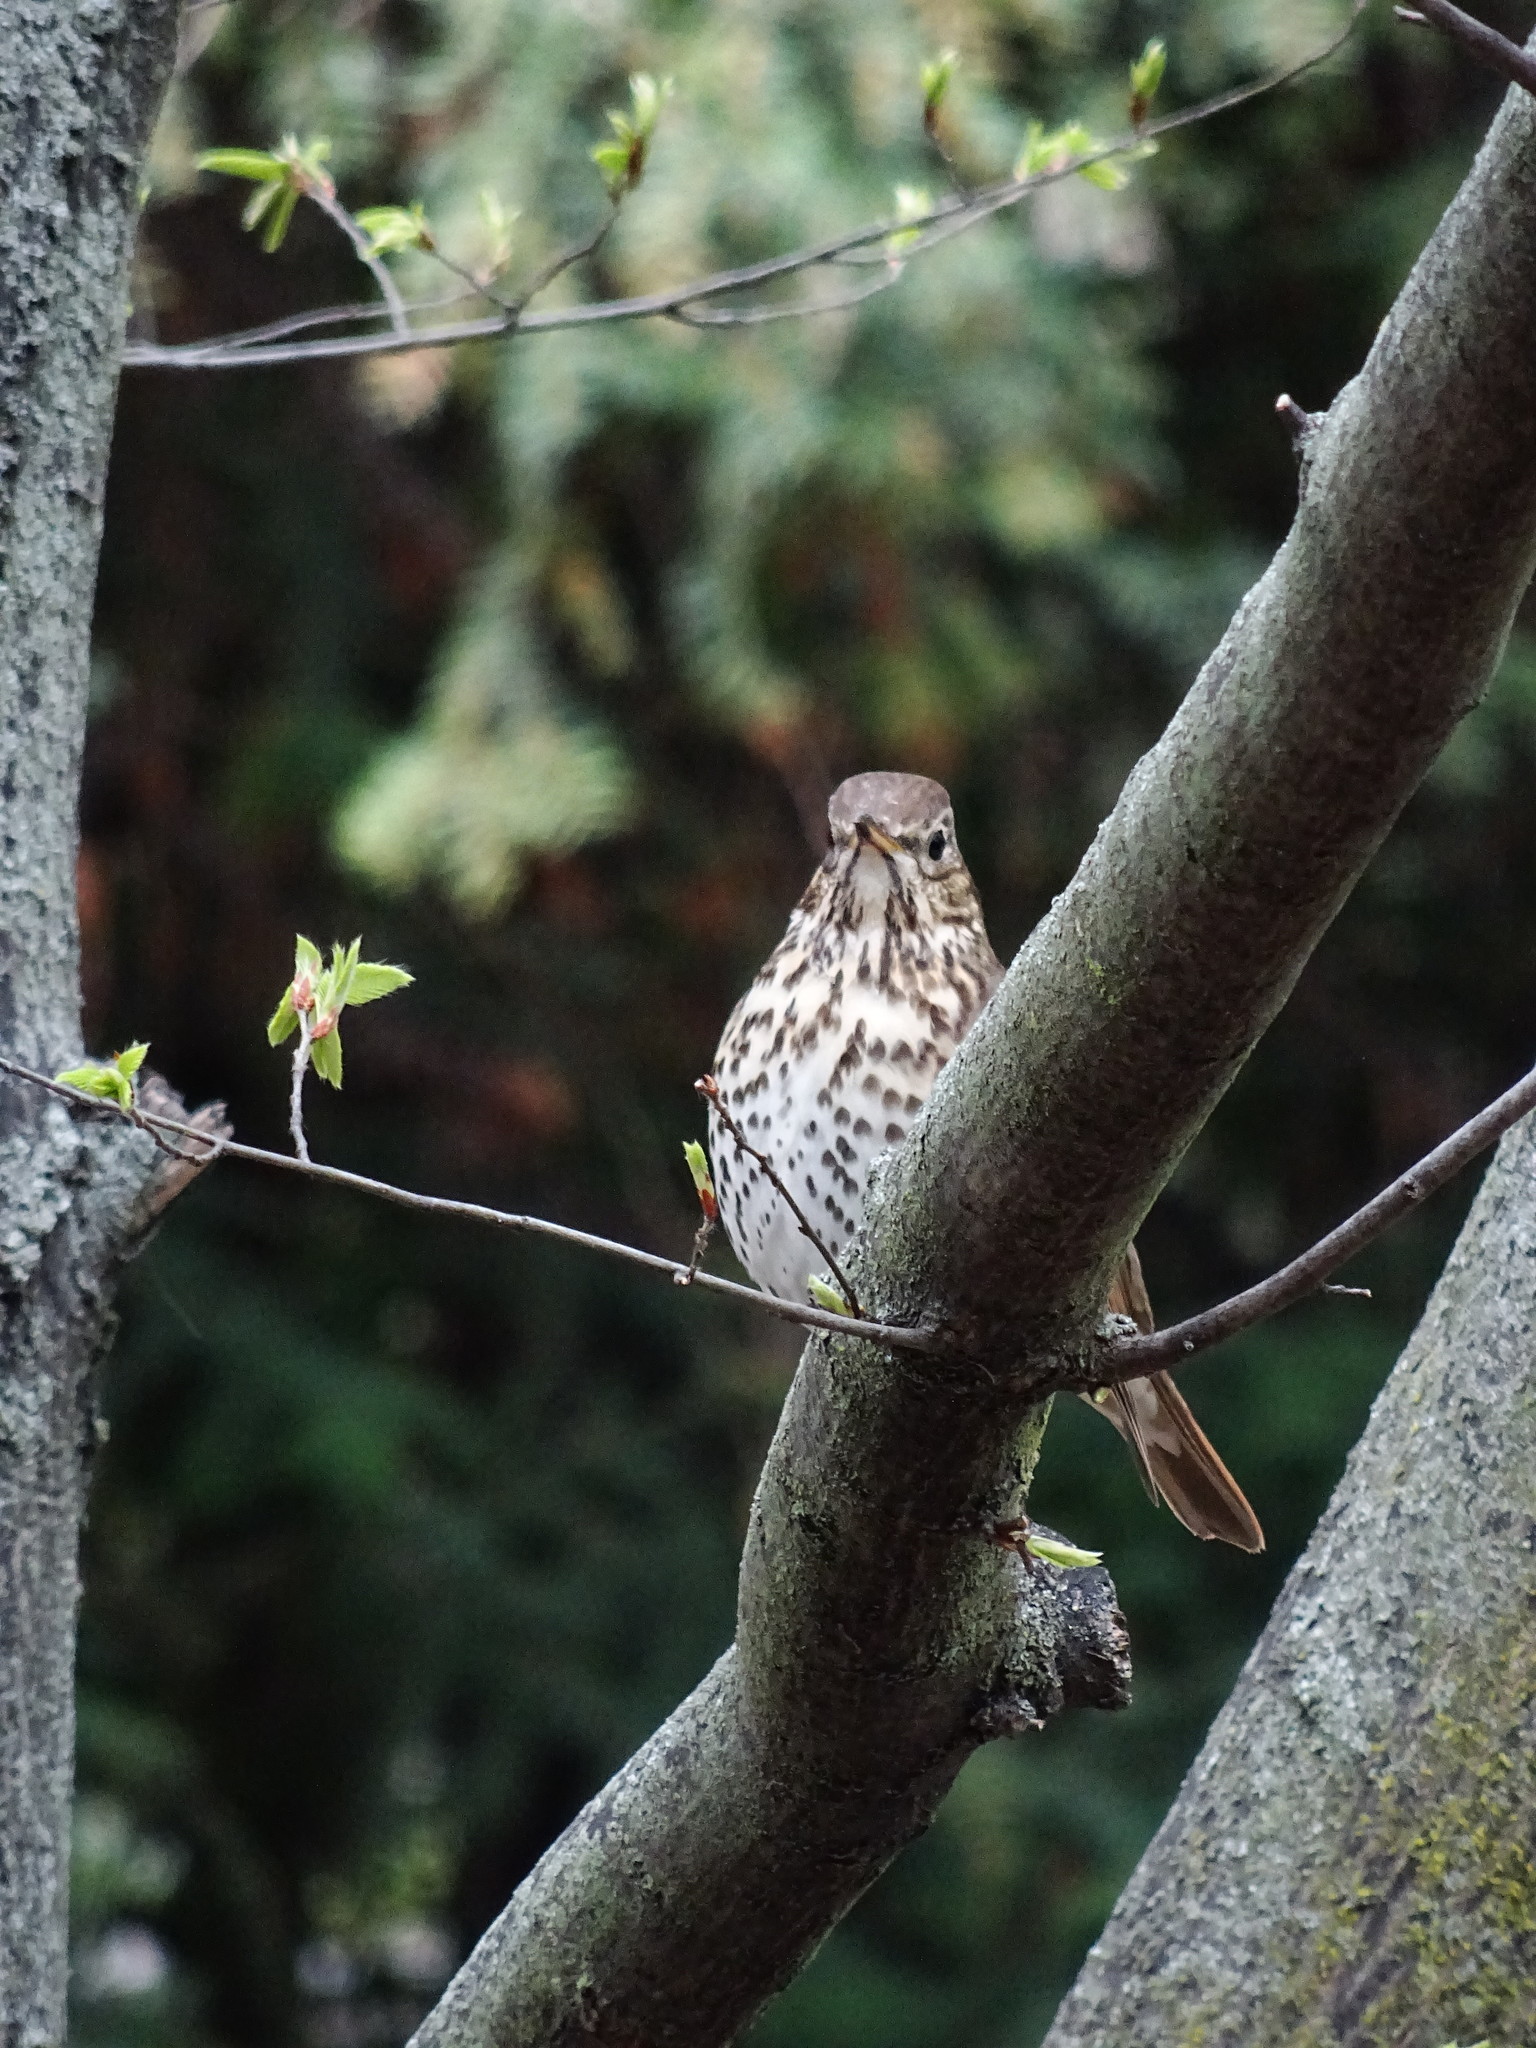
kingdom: Animalia
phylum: Chordata
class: Aves
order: Passeriformes
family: Turdidae
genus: Turdus
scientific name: Turdus philomelos
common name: Song thrush
